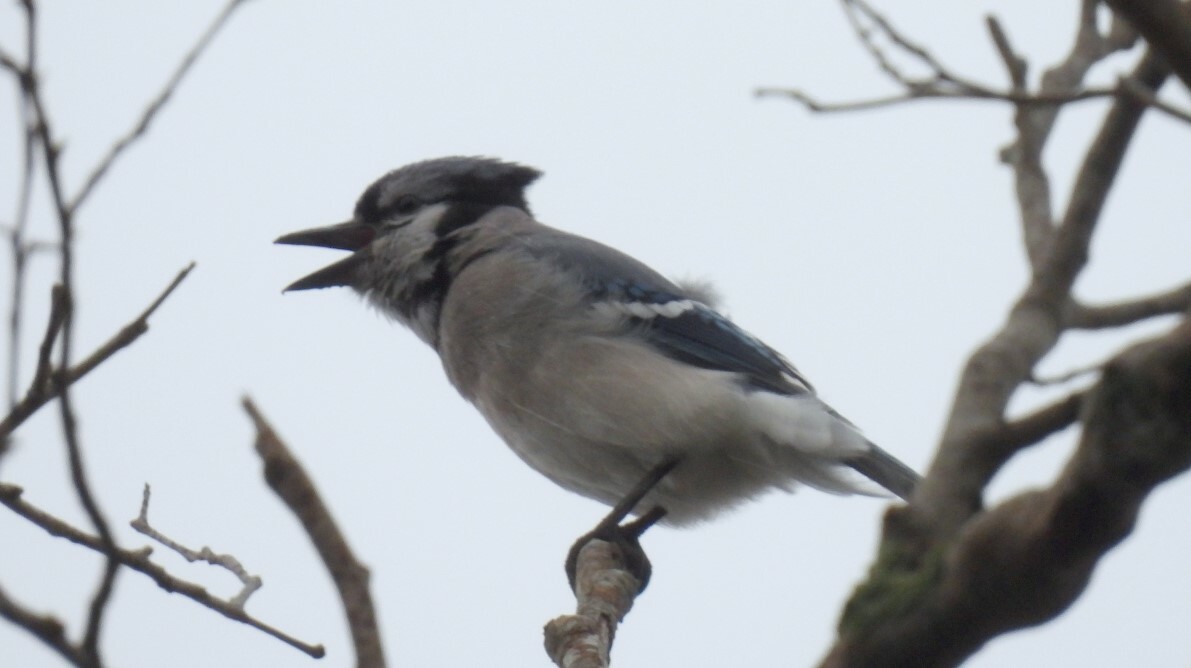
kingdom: Animalia
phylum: Chordata
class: Aves
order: Passeriformes
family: Corvidae
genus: Cyanocitta
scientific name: Cyanocitta cristata
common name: Blue jay
